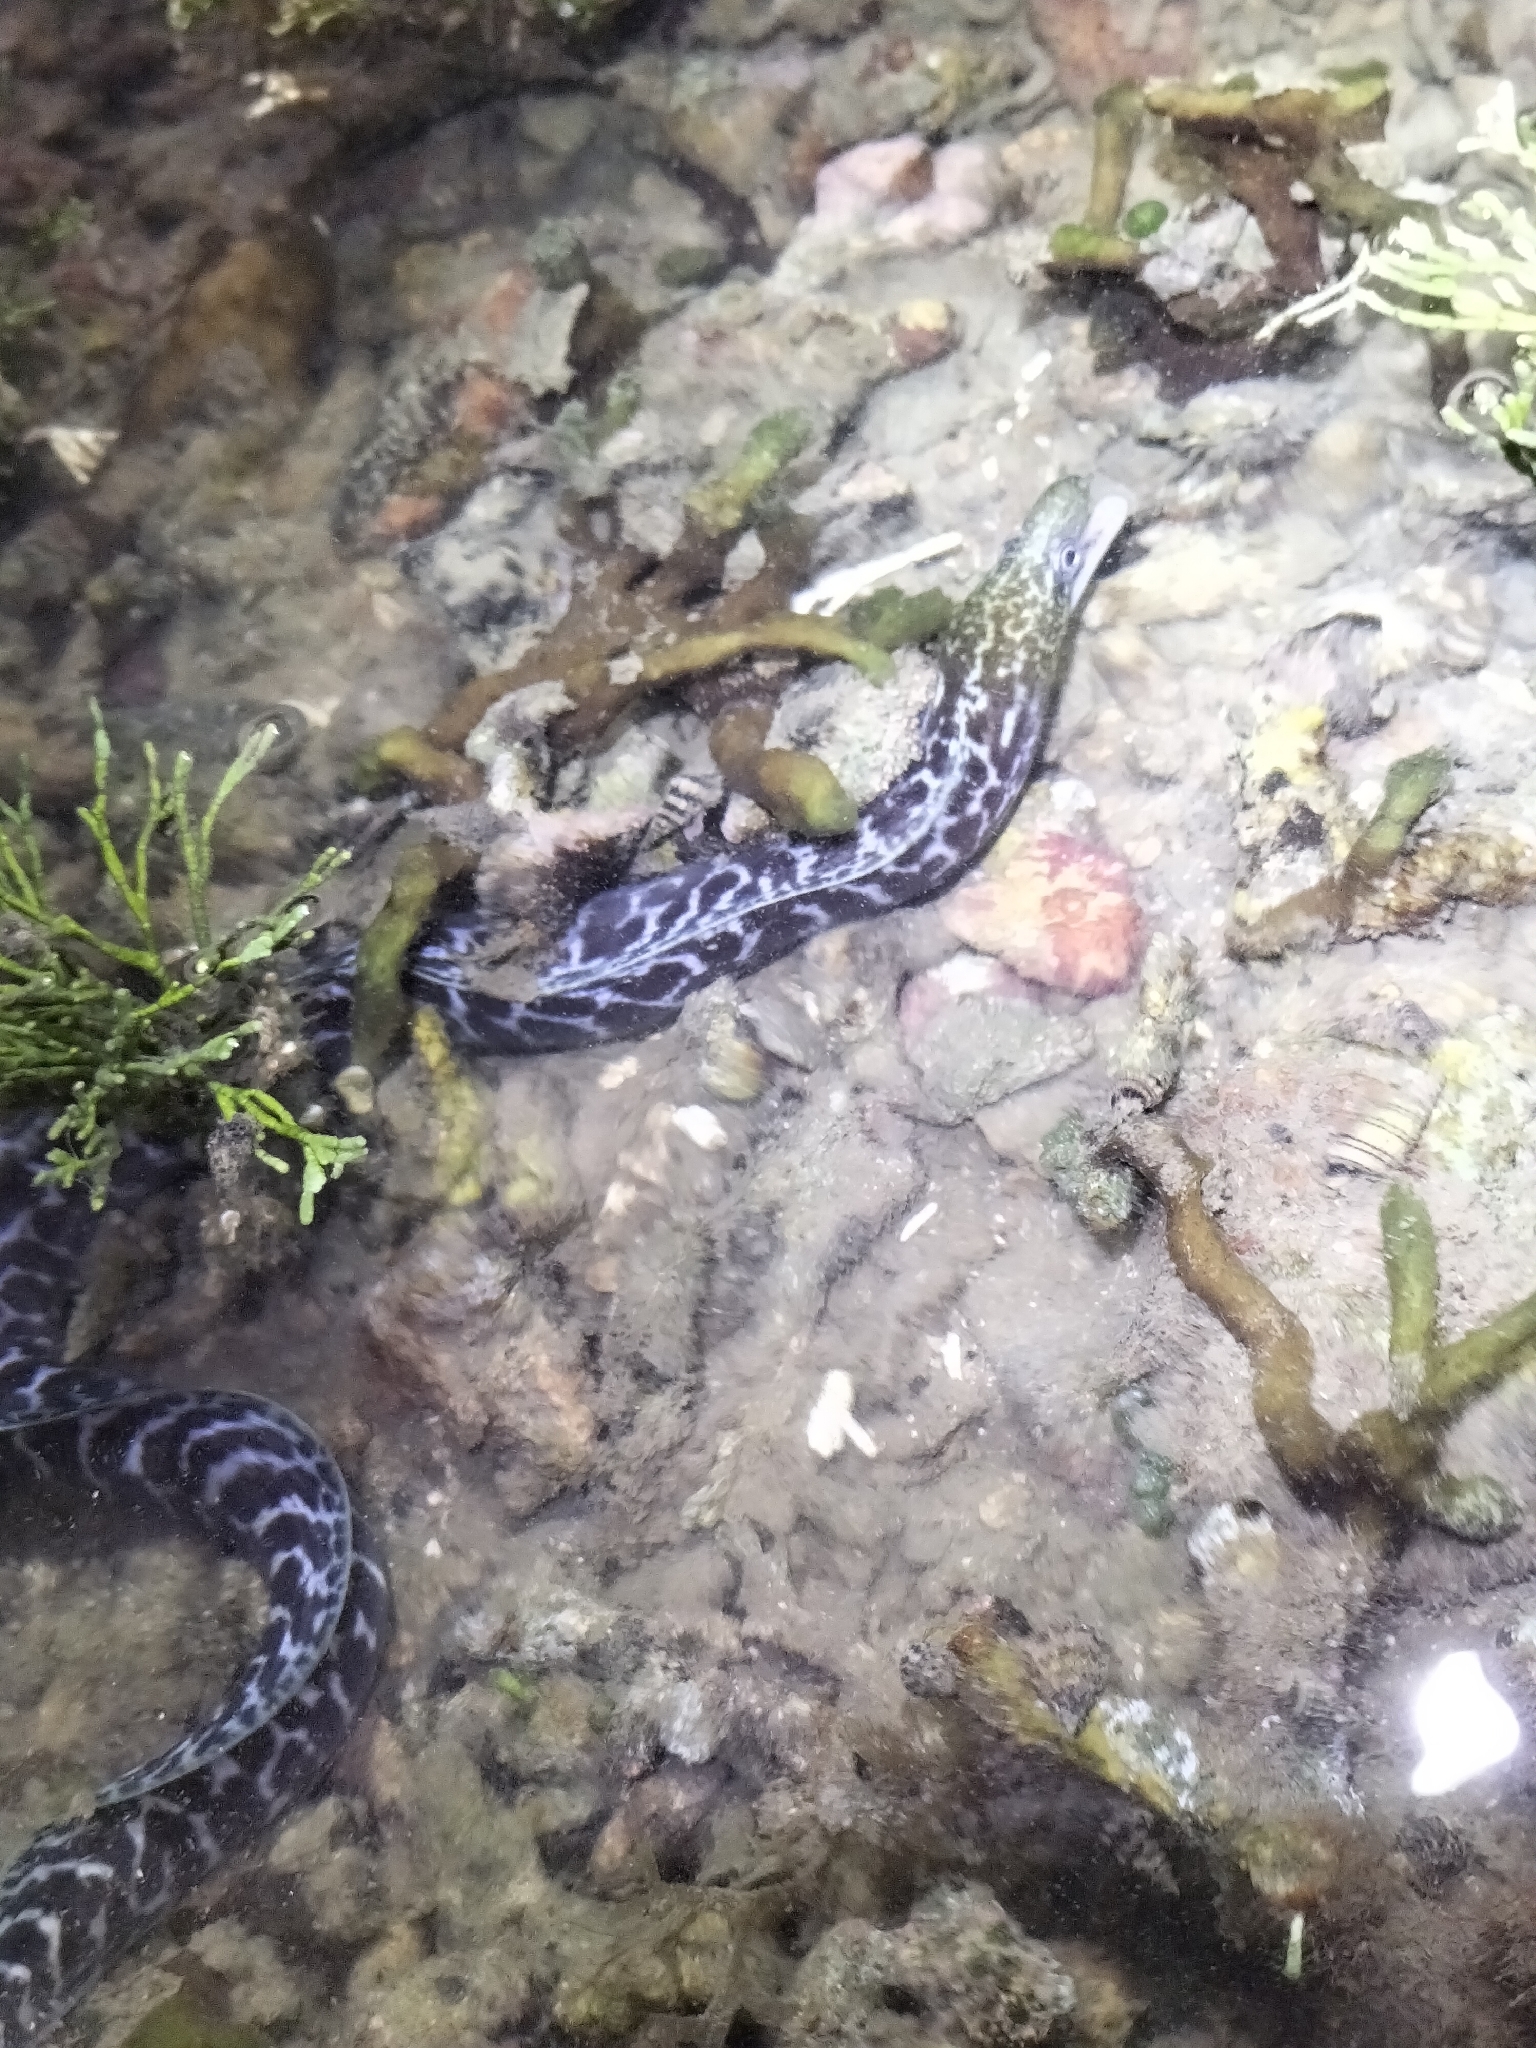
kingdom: Animalia
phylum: Chordata
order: Anguilliformes
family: Muraenidae
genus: Gymnothorax
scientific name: Gymnothorax undulatus
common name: Leopard moray
